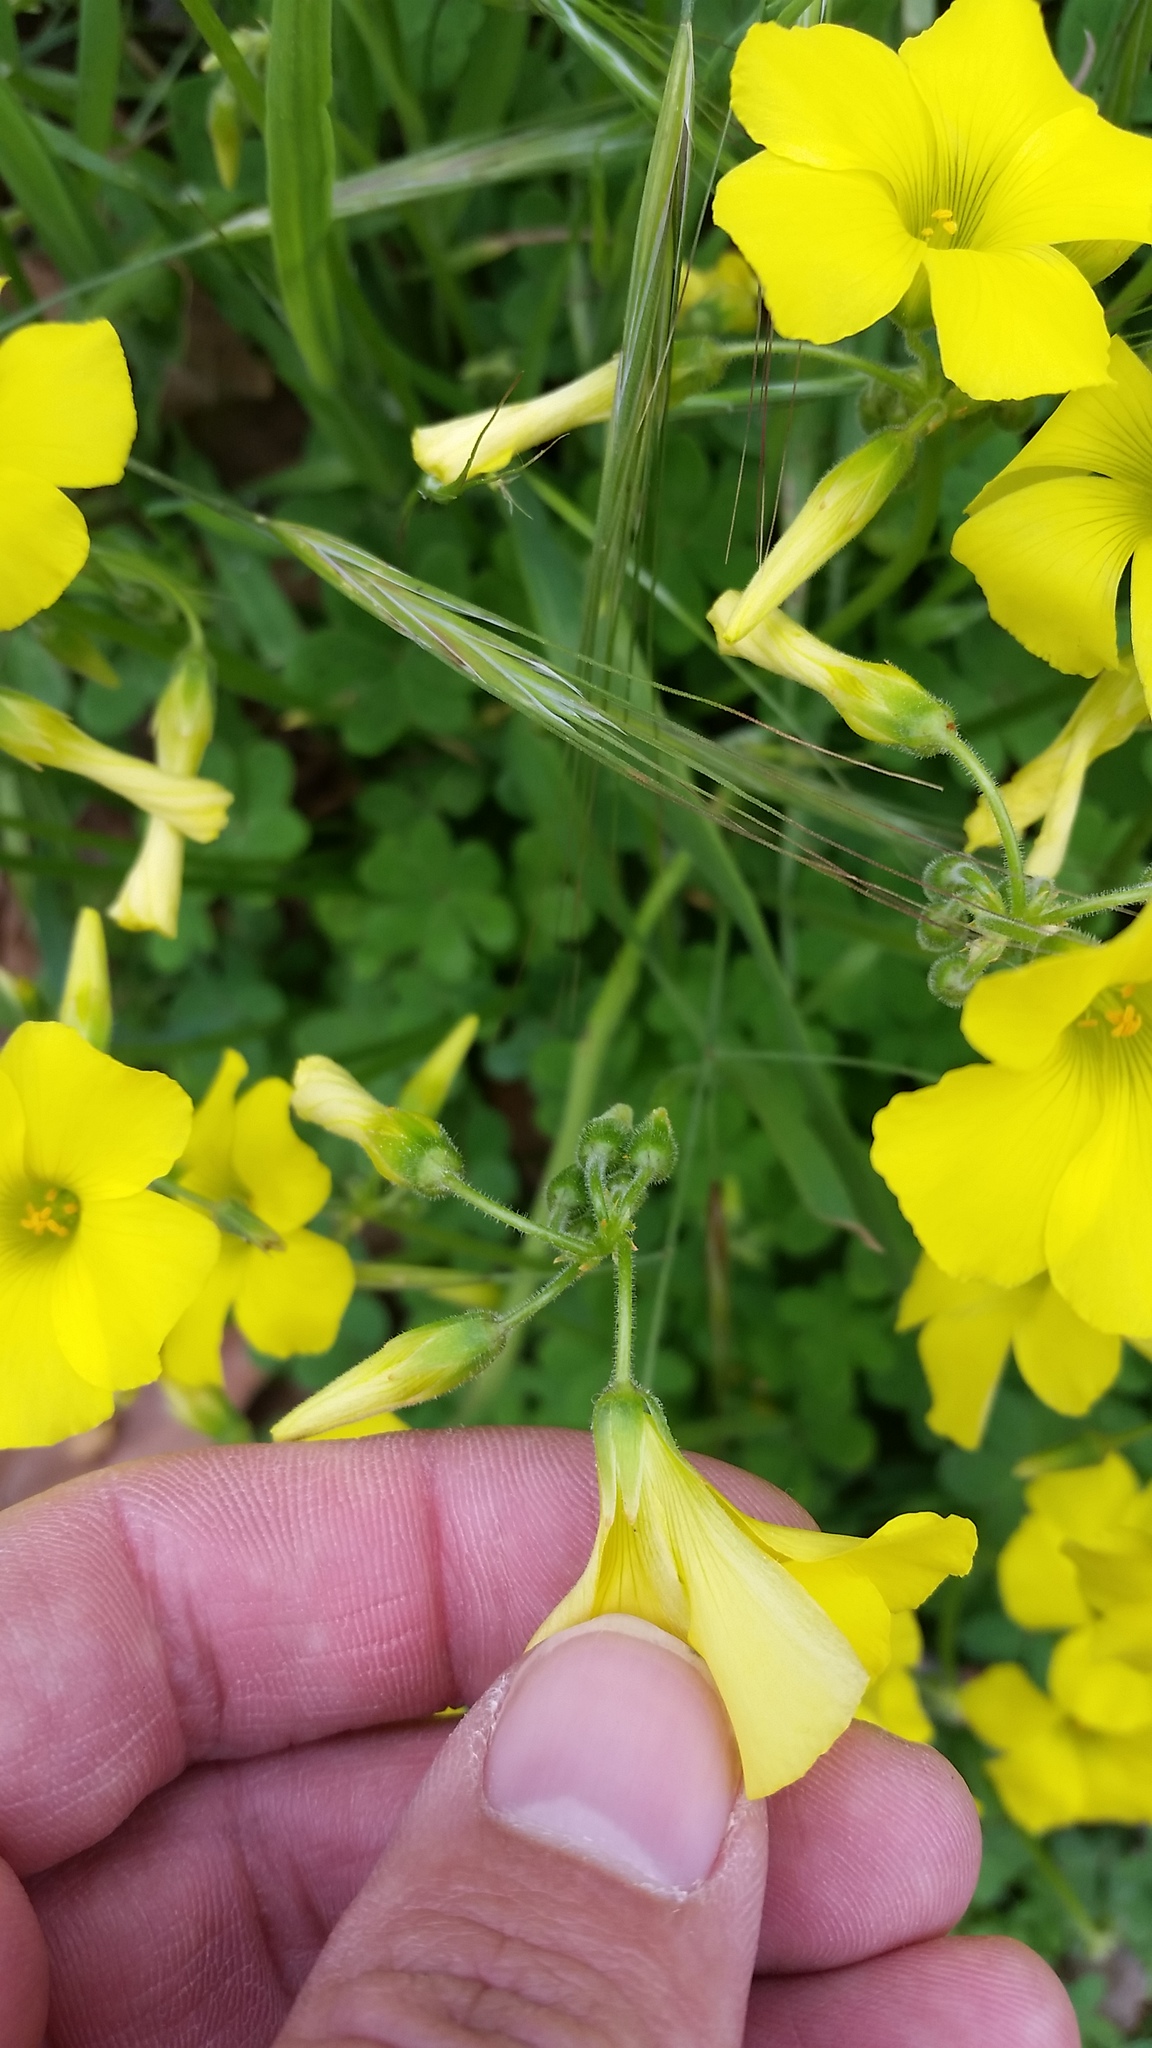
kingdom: Plantae
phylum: Tracheophyta
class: Magnoliopsida
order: Oxalidales
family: Oxalidaceae
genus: Oxalis
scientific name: Oxalis pes-caprae
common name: Bermuda-buttercup
